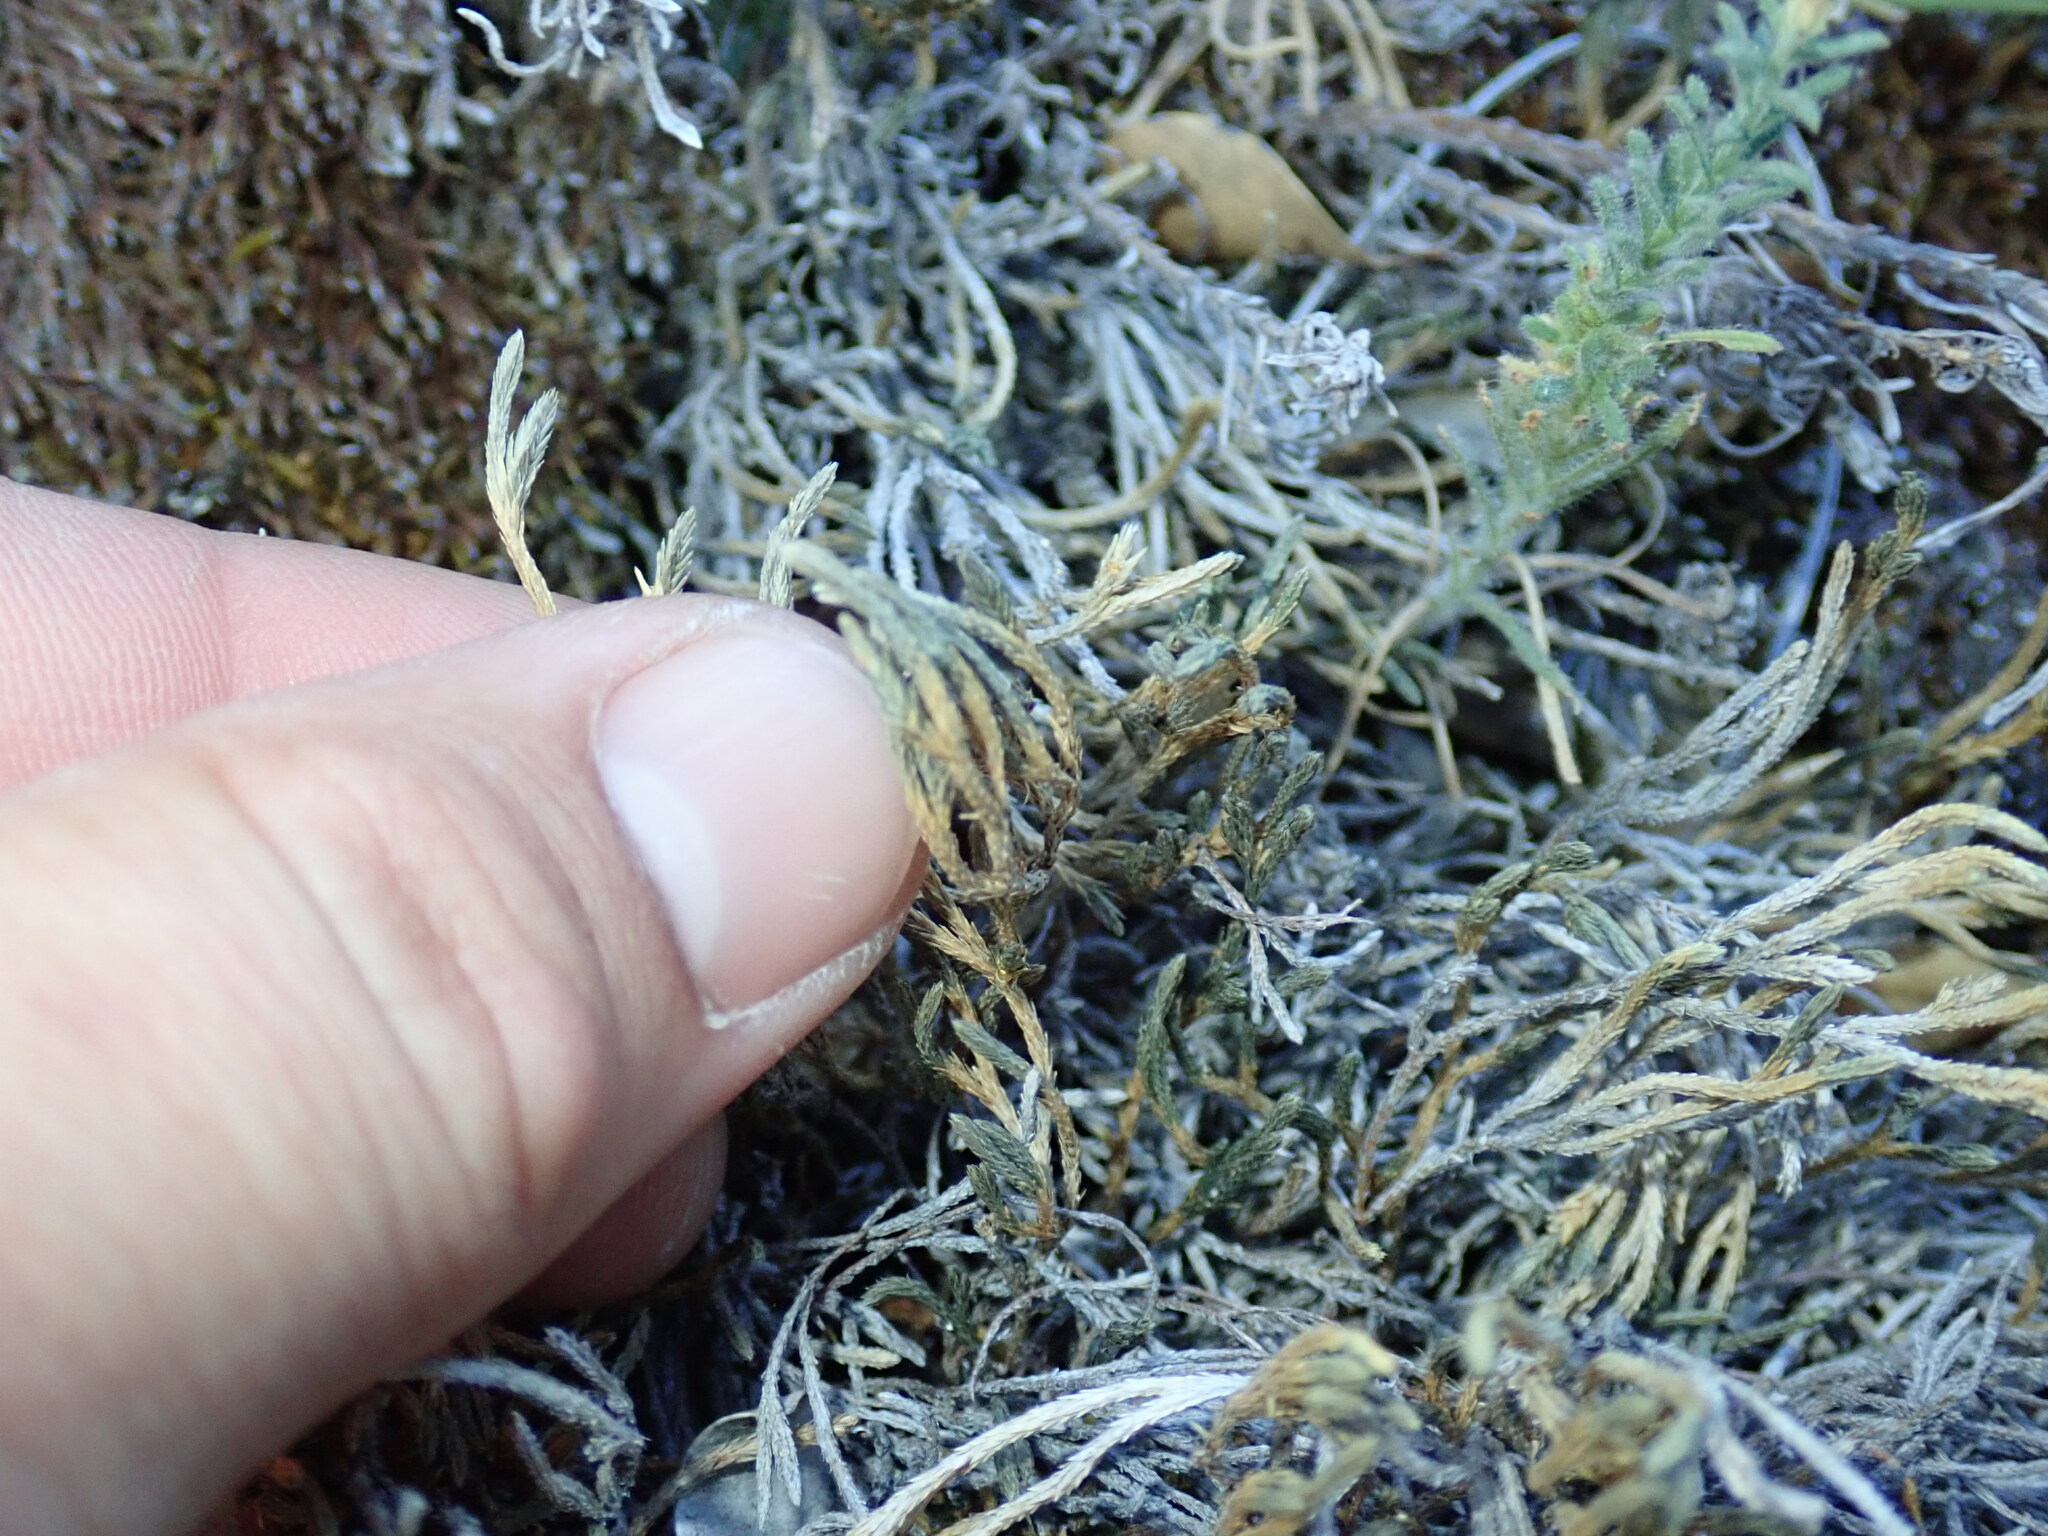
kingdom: Plantae
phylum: Tracheophyta
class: Lycopodiopsida
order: Selaginellales
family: Selaginellaceae
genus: Selaginella
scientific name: Selaginella bigelovii
